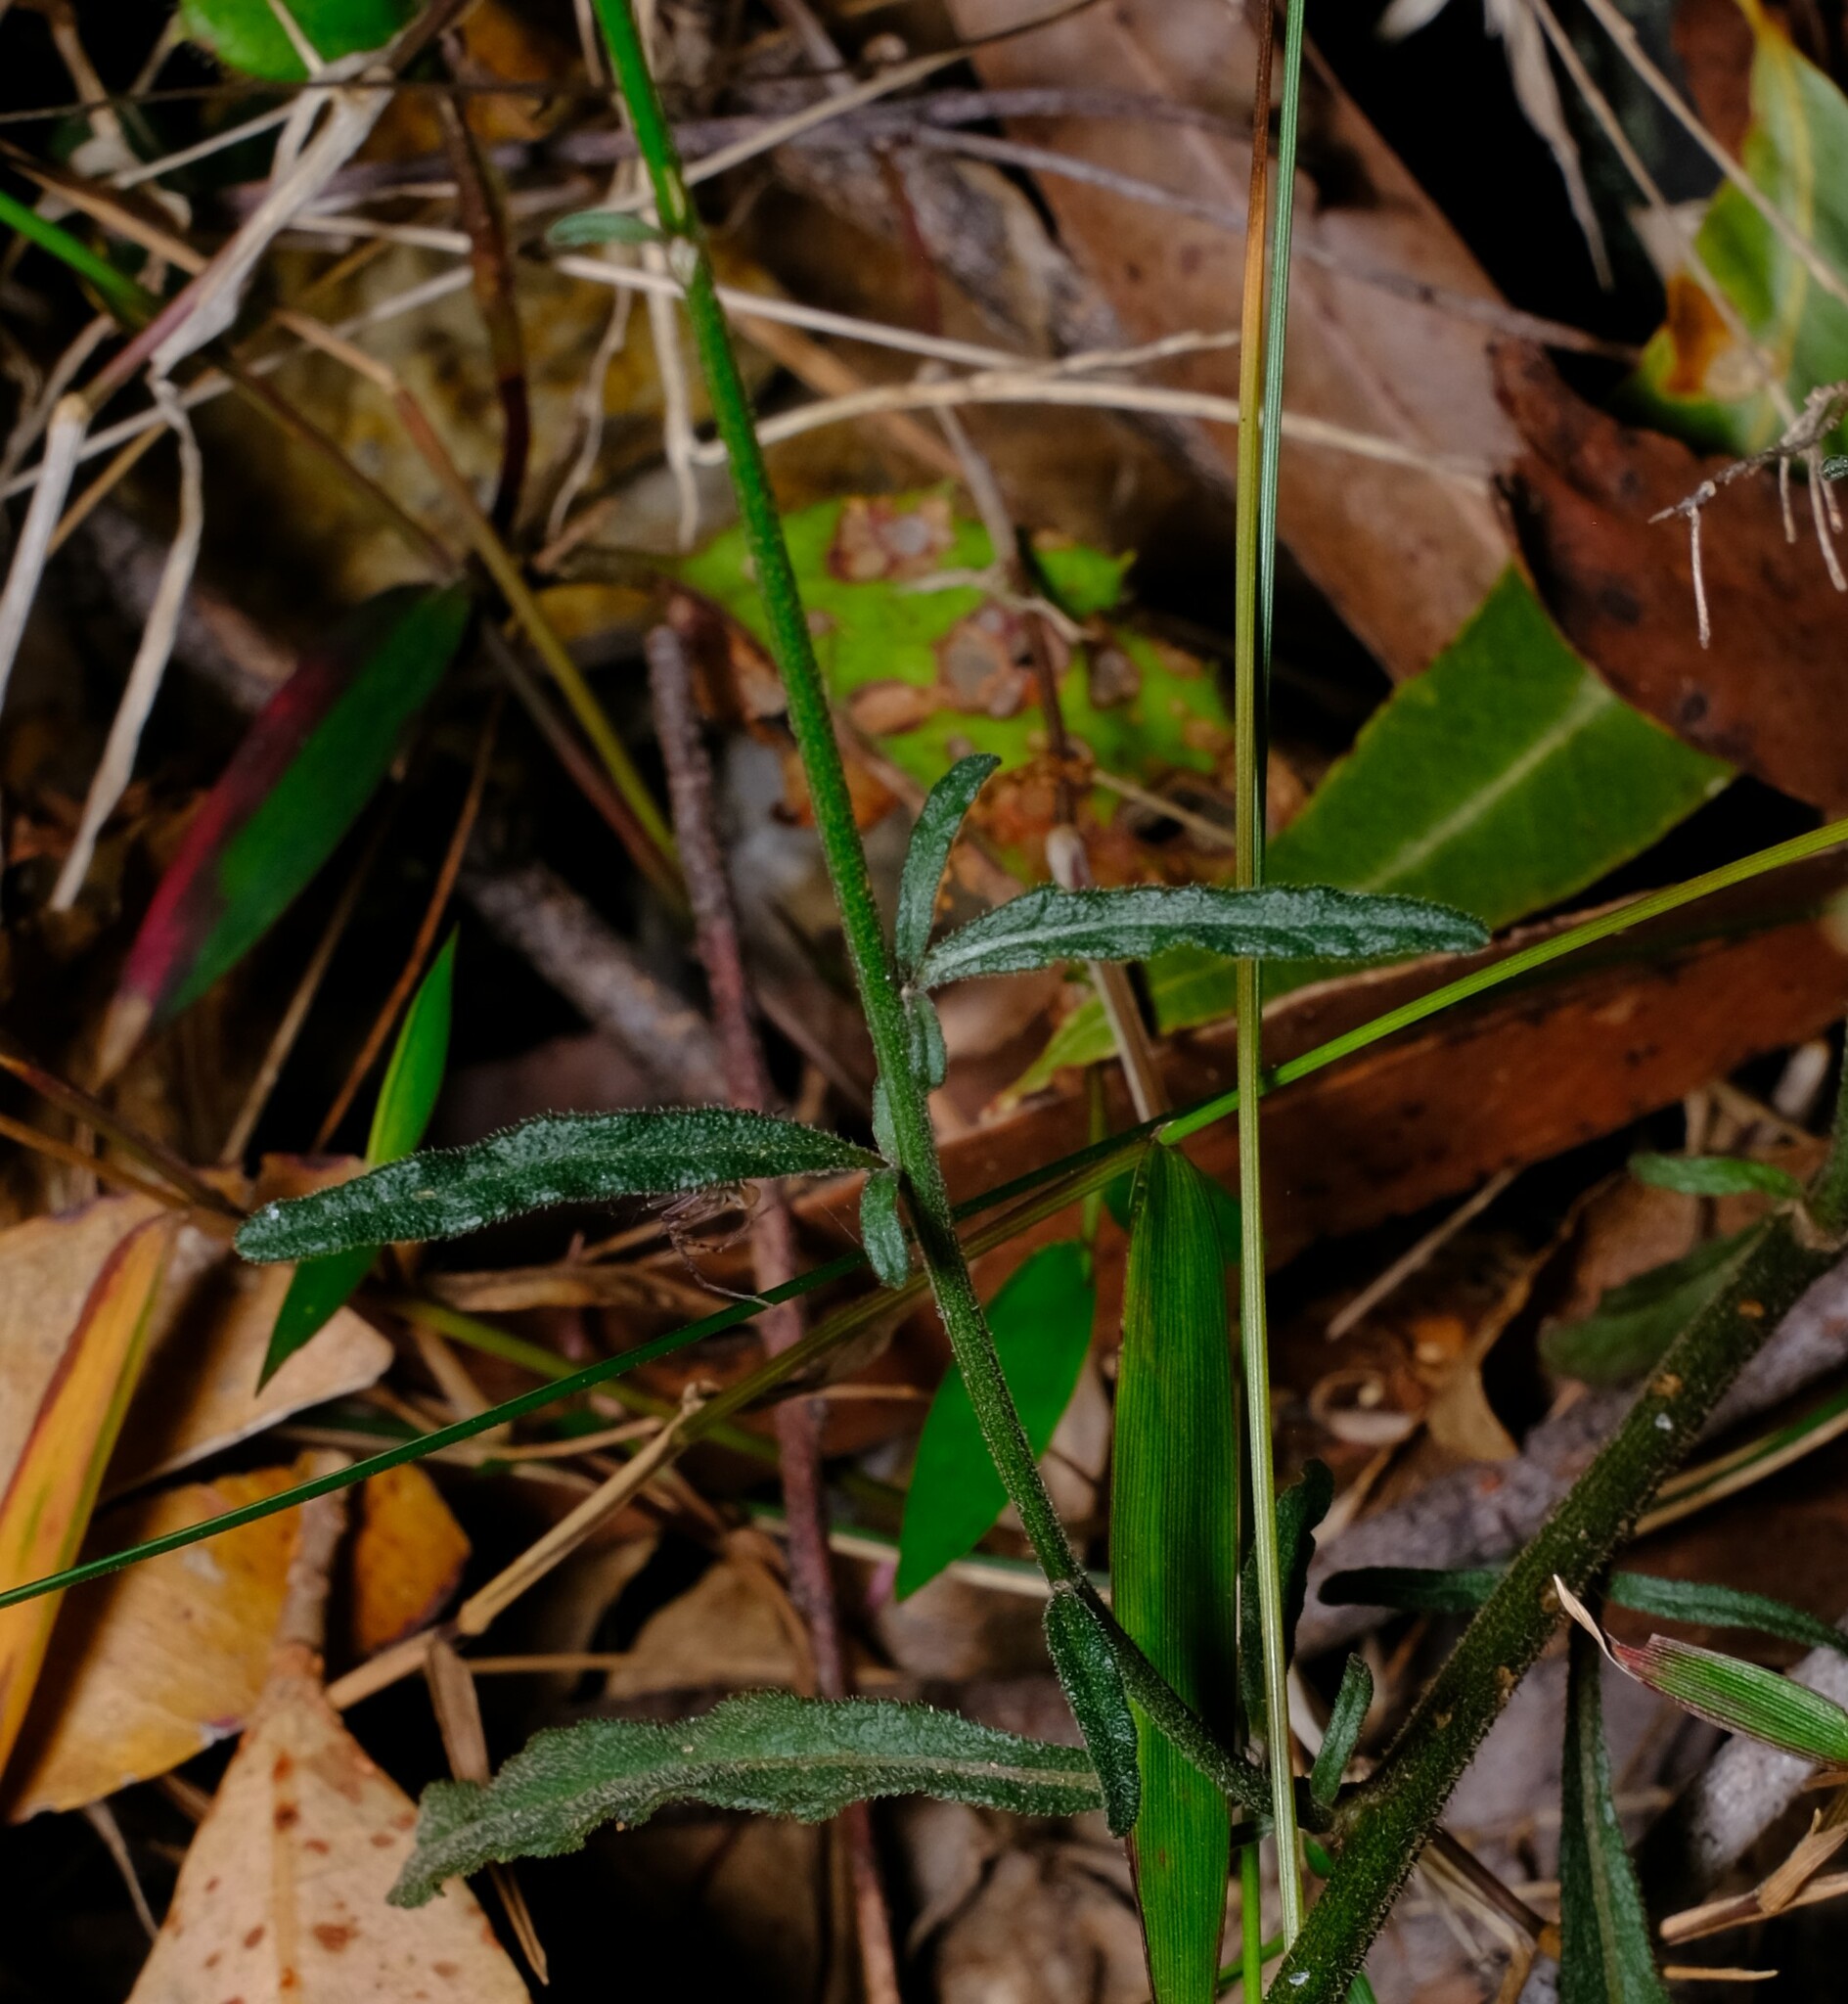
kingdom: Plantae
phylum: Tracheophyta
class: Magnoliopsida
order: Asterales
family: Asteraceae
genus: Cyanthillium
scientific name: Cyanthillium cinereum
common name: Little ironweed
